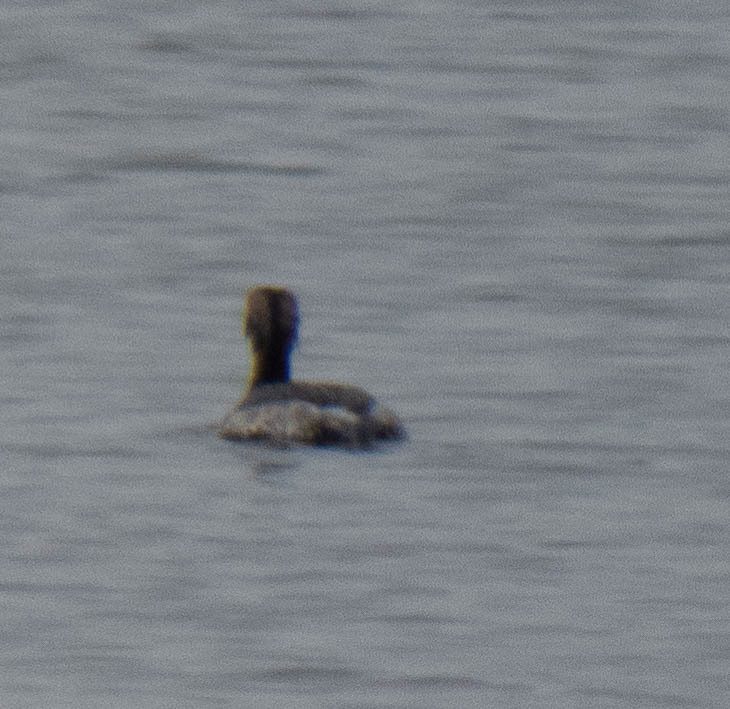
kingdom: Animalia
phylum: Chordata
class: Aves
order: Podicipediformes
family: Podicipedidae
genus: Podiceps
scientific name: Podiceps auritus
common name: Horned grebe
